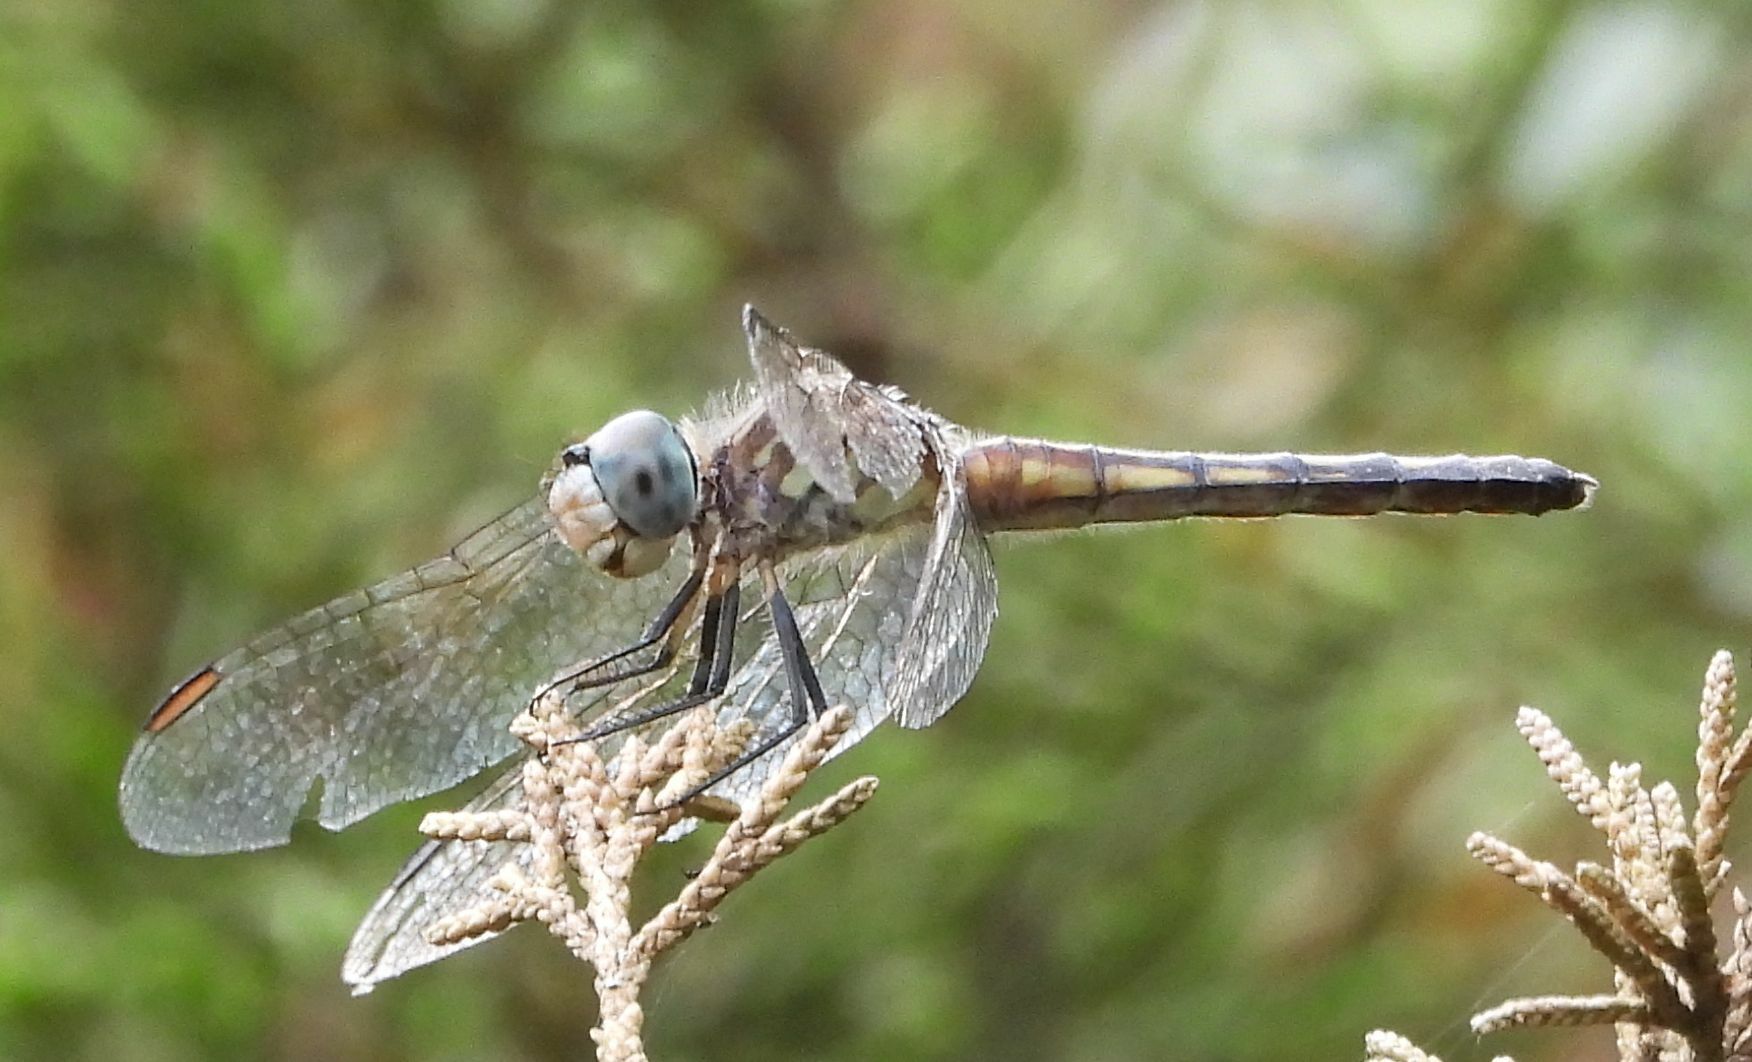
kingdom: Animalia
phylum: Arthropoda
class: Insecta
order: Odonata
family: Libellulidae
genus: Pachydiplax
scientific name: Pachydiplax longipennis
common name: Blue dasher
